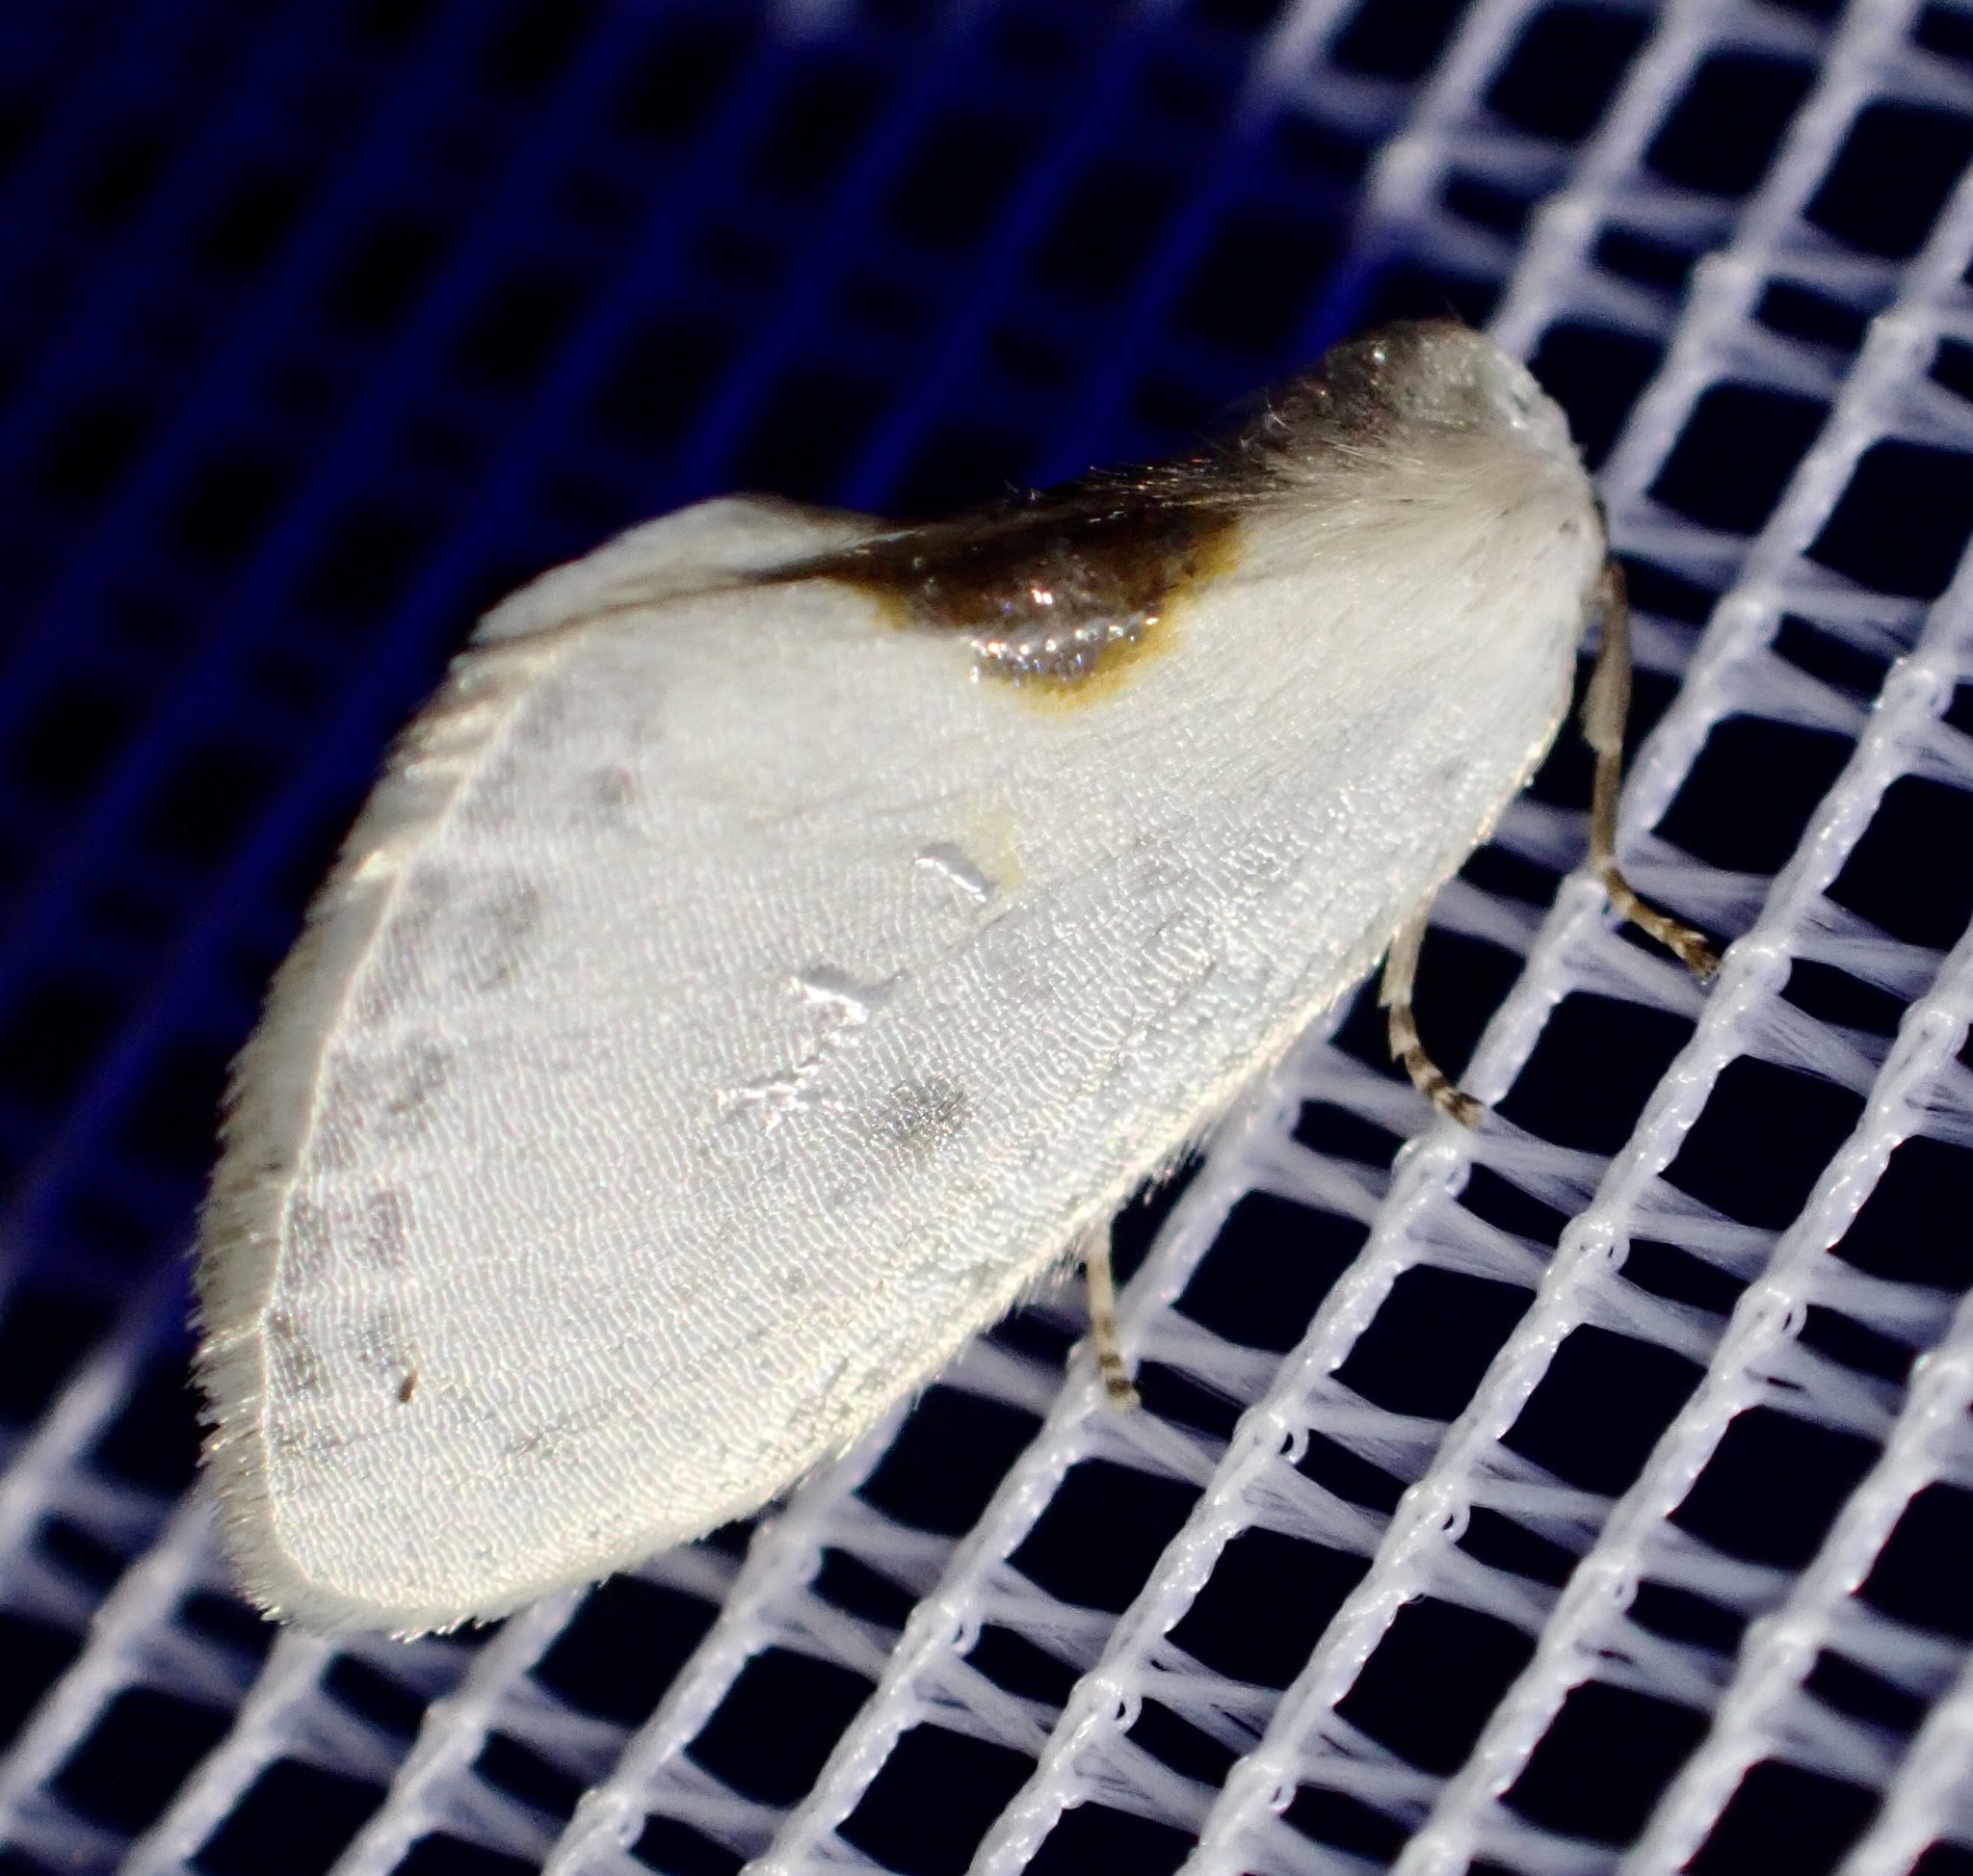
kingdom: Animalia
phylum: Arthropoda
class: Insecta
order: Lepidoptera
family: Drepanidae
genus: Cilix
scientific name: Cilix glaucata
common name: Chinese character
